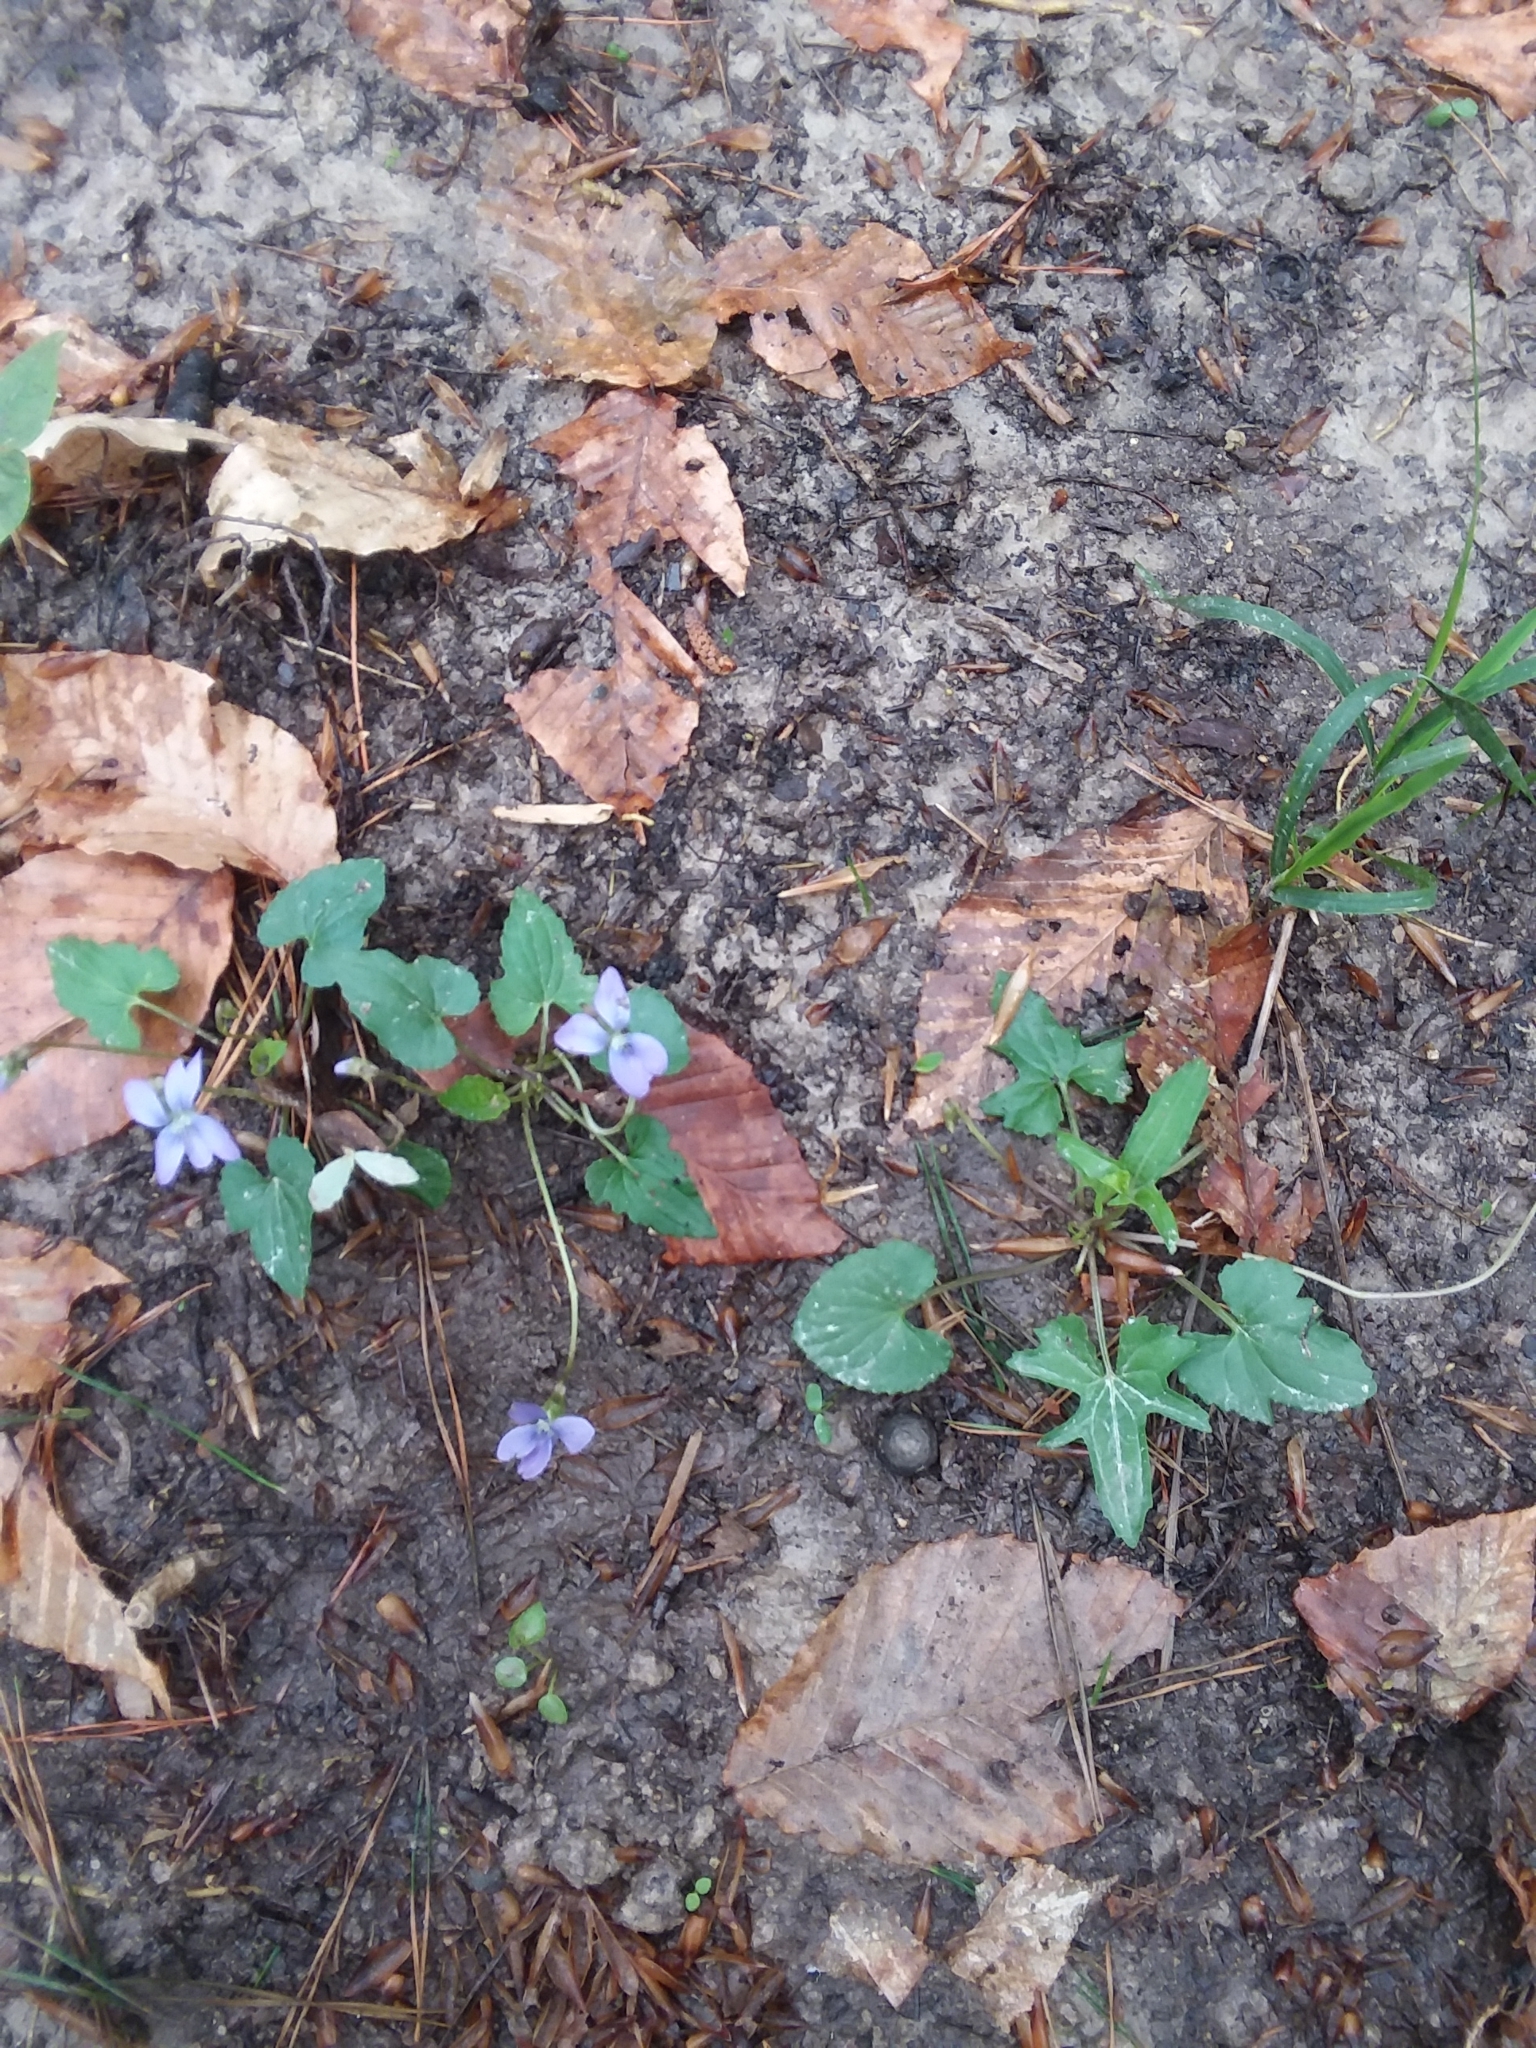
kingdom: Plantae
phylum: Tracheophyta
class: Magnoliopsida
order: Malpighiales
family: Violaceae
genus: Viola
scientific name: Viola edulis
